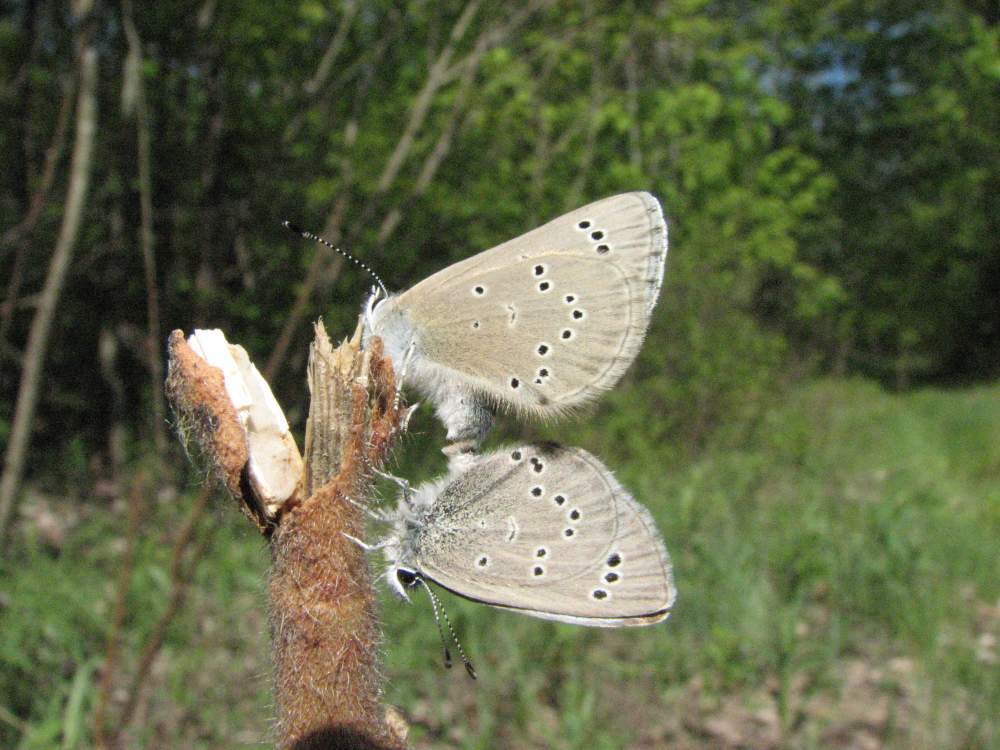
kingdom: Animalia
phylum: Arthropoda
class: Insecta
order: Lepidoptera
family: Lycaenidae
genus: Glaucopsyche
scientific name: Glaucopsyche lygdamus
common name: Silvery blue
